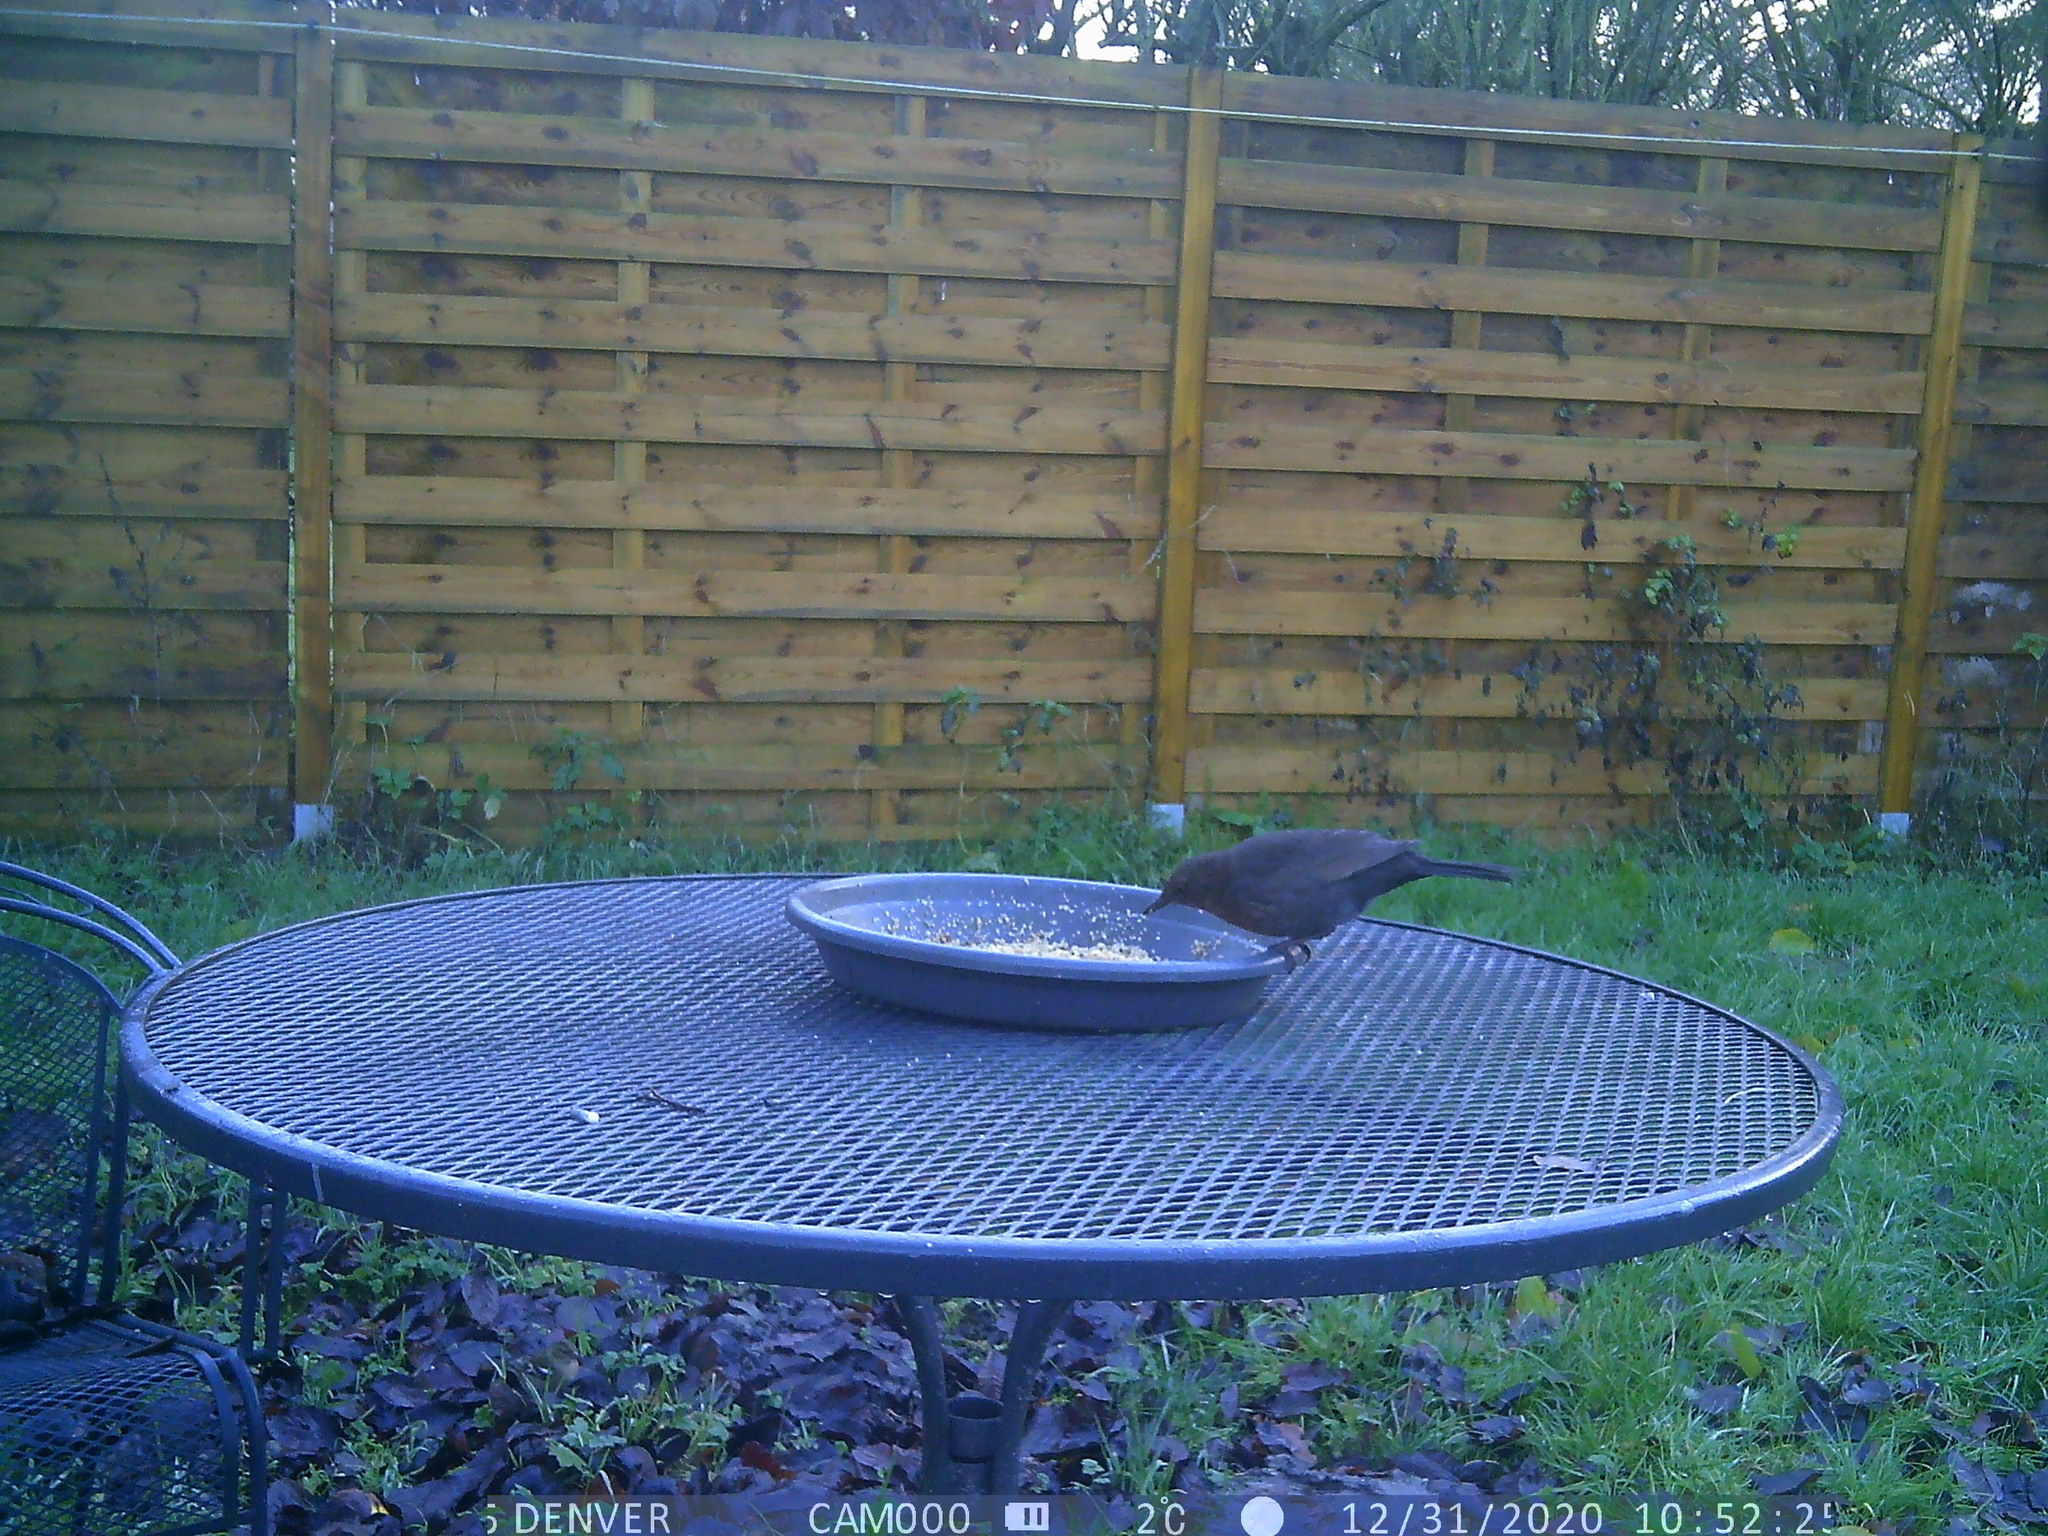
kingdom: Animalia
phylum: Chordata
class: Aves
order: Passeriformes
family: Turdidae
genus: Turdus
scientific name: Turdus merula
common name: Common blackbird
